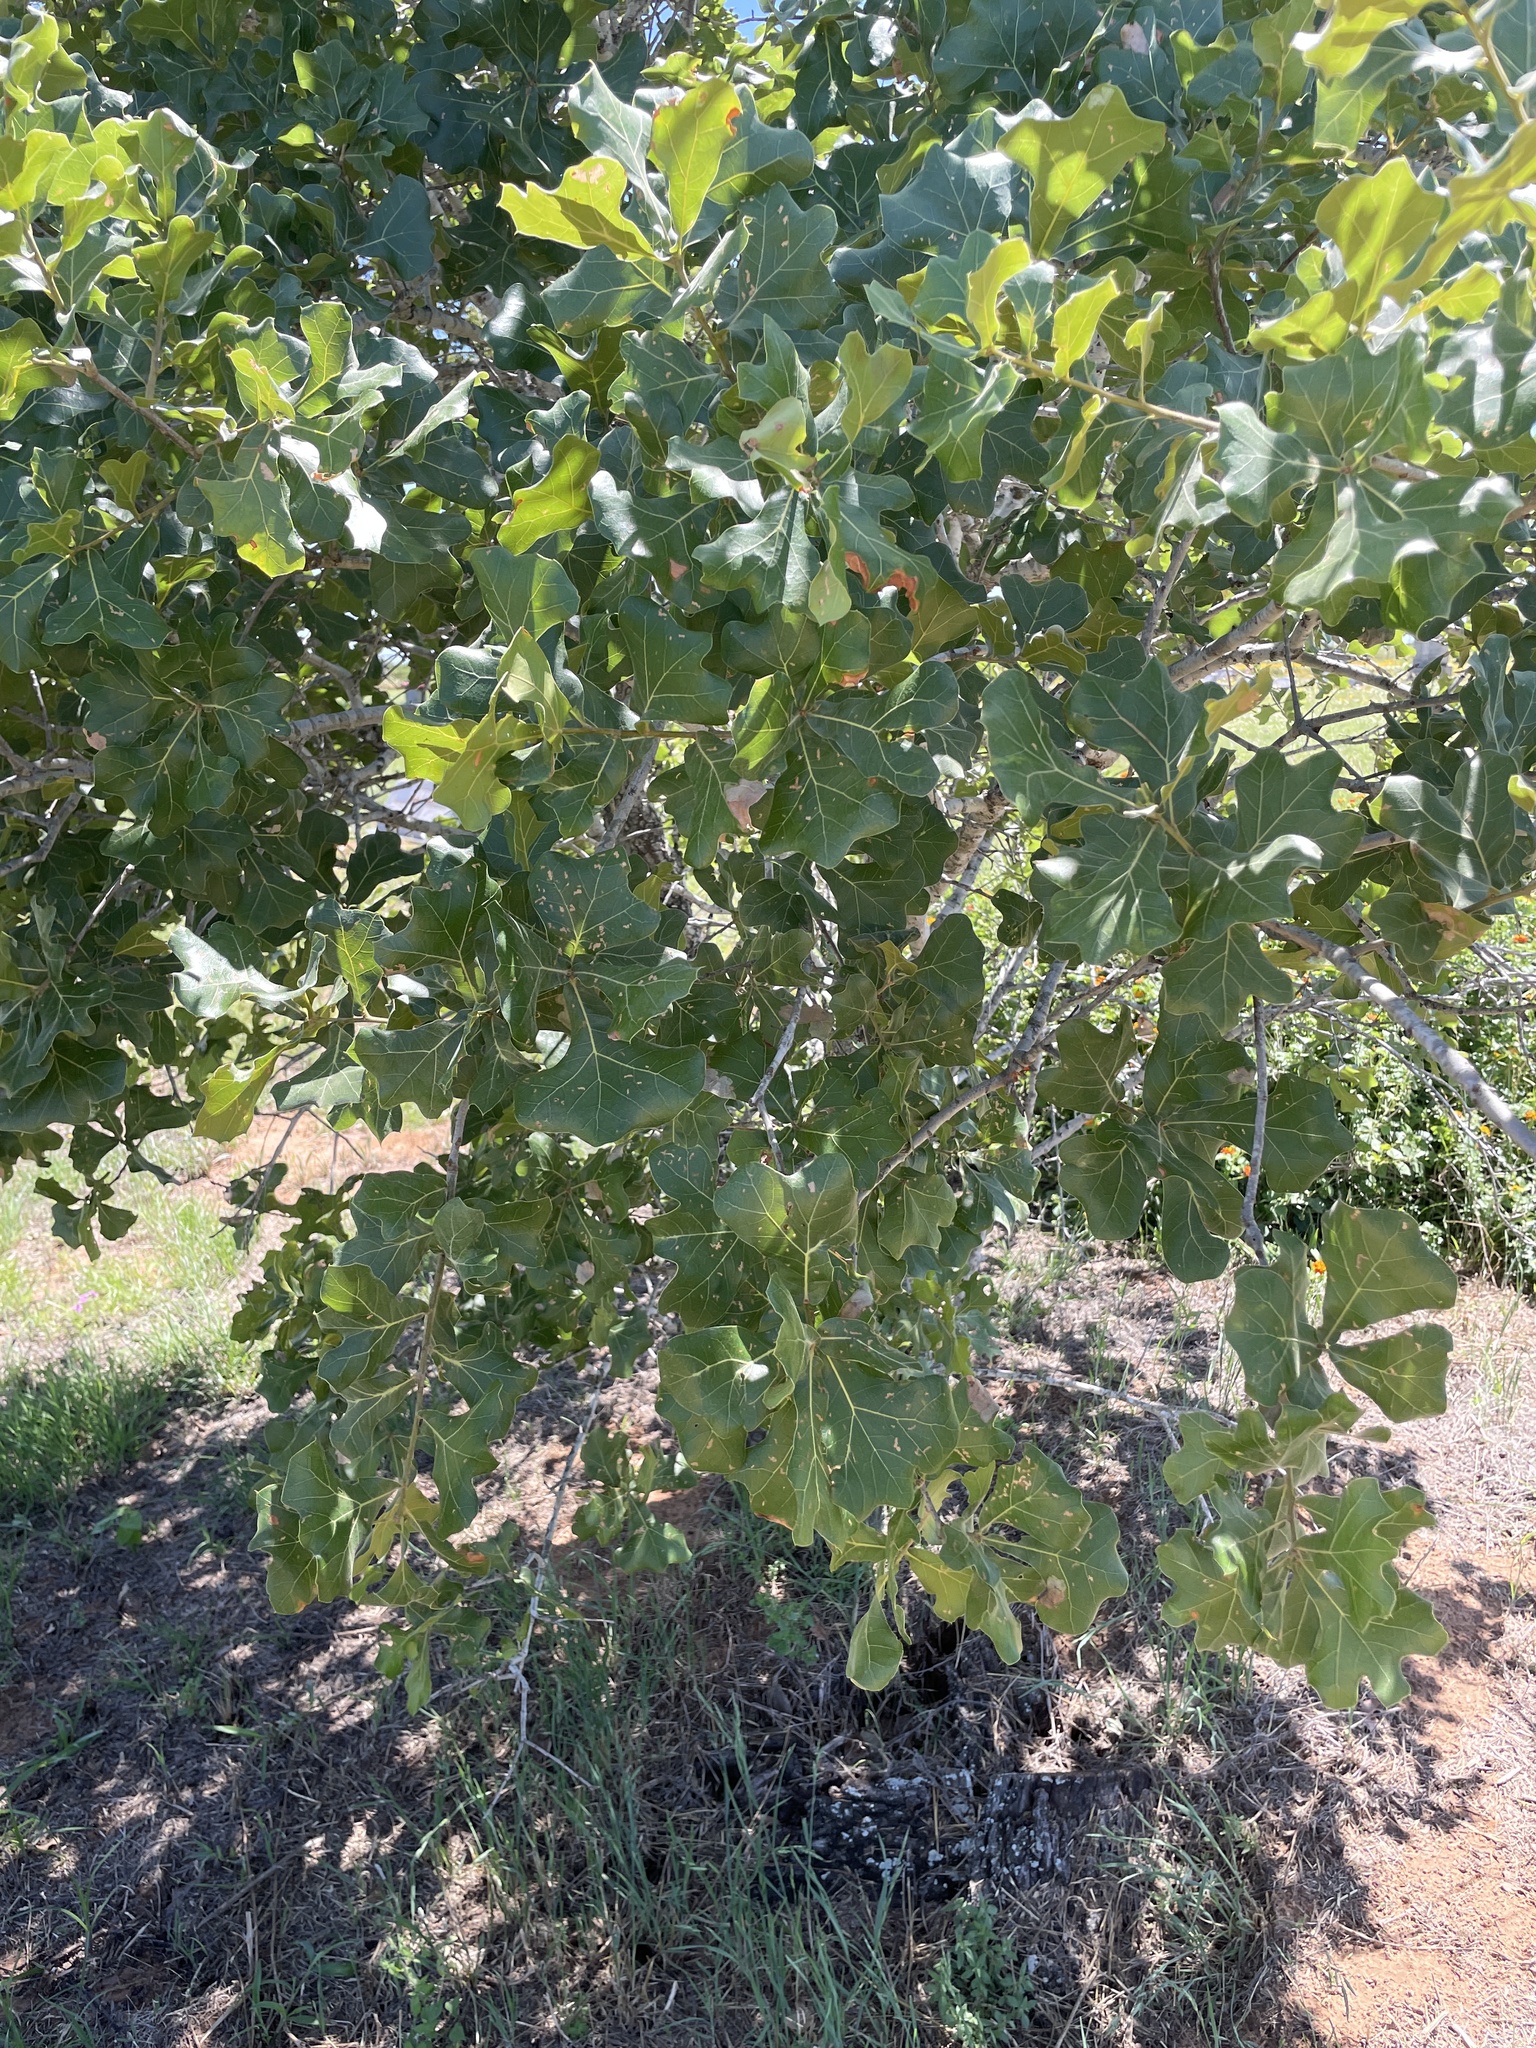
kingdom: Plantae
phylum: Tracheophyta
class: Magnoliopsida
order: Fagales
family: Fagaceae
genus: Quercus
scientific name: Quercus marilandica
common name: Blackjack oak
